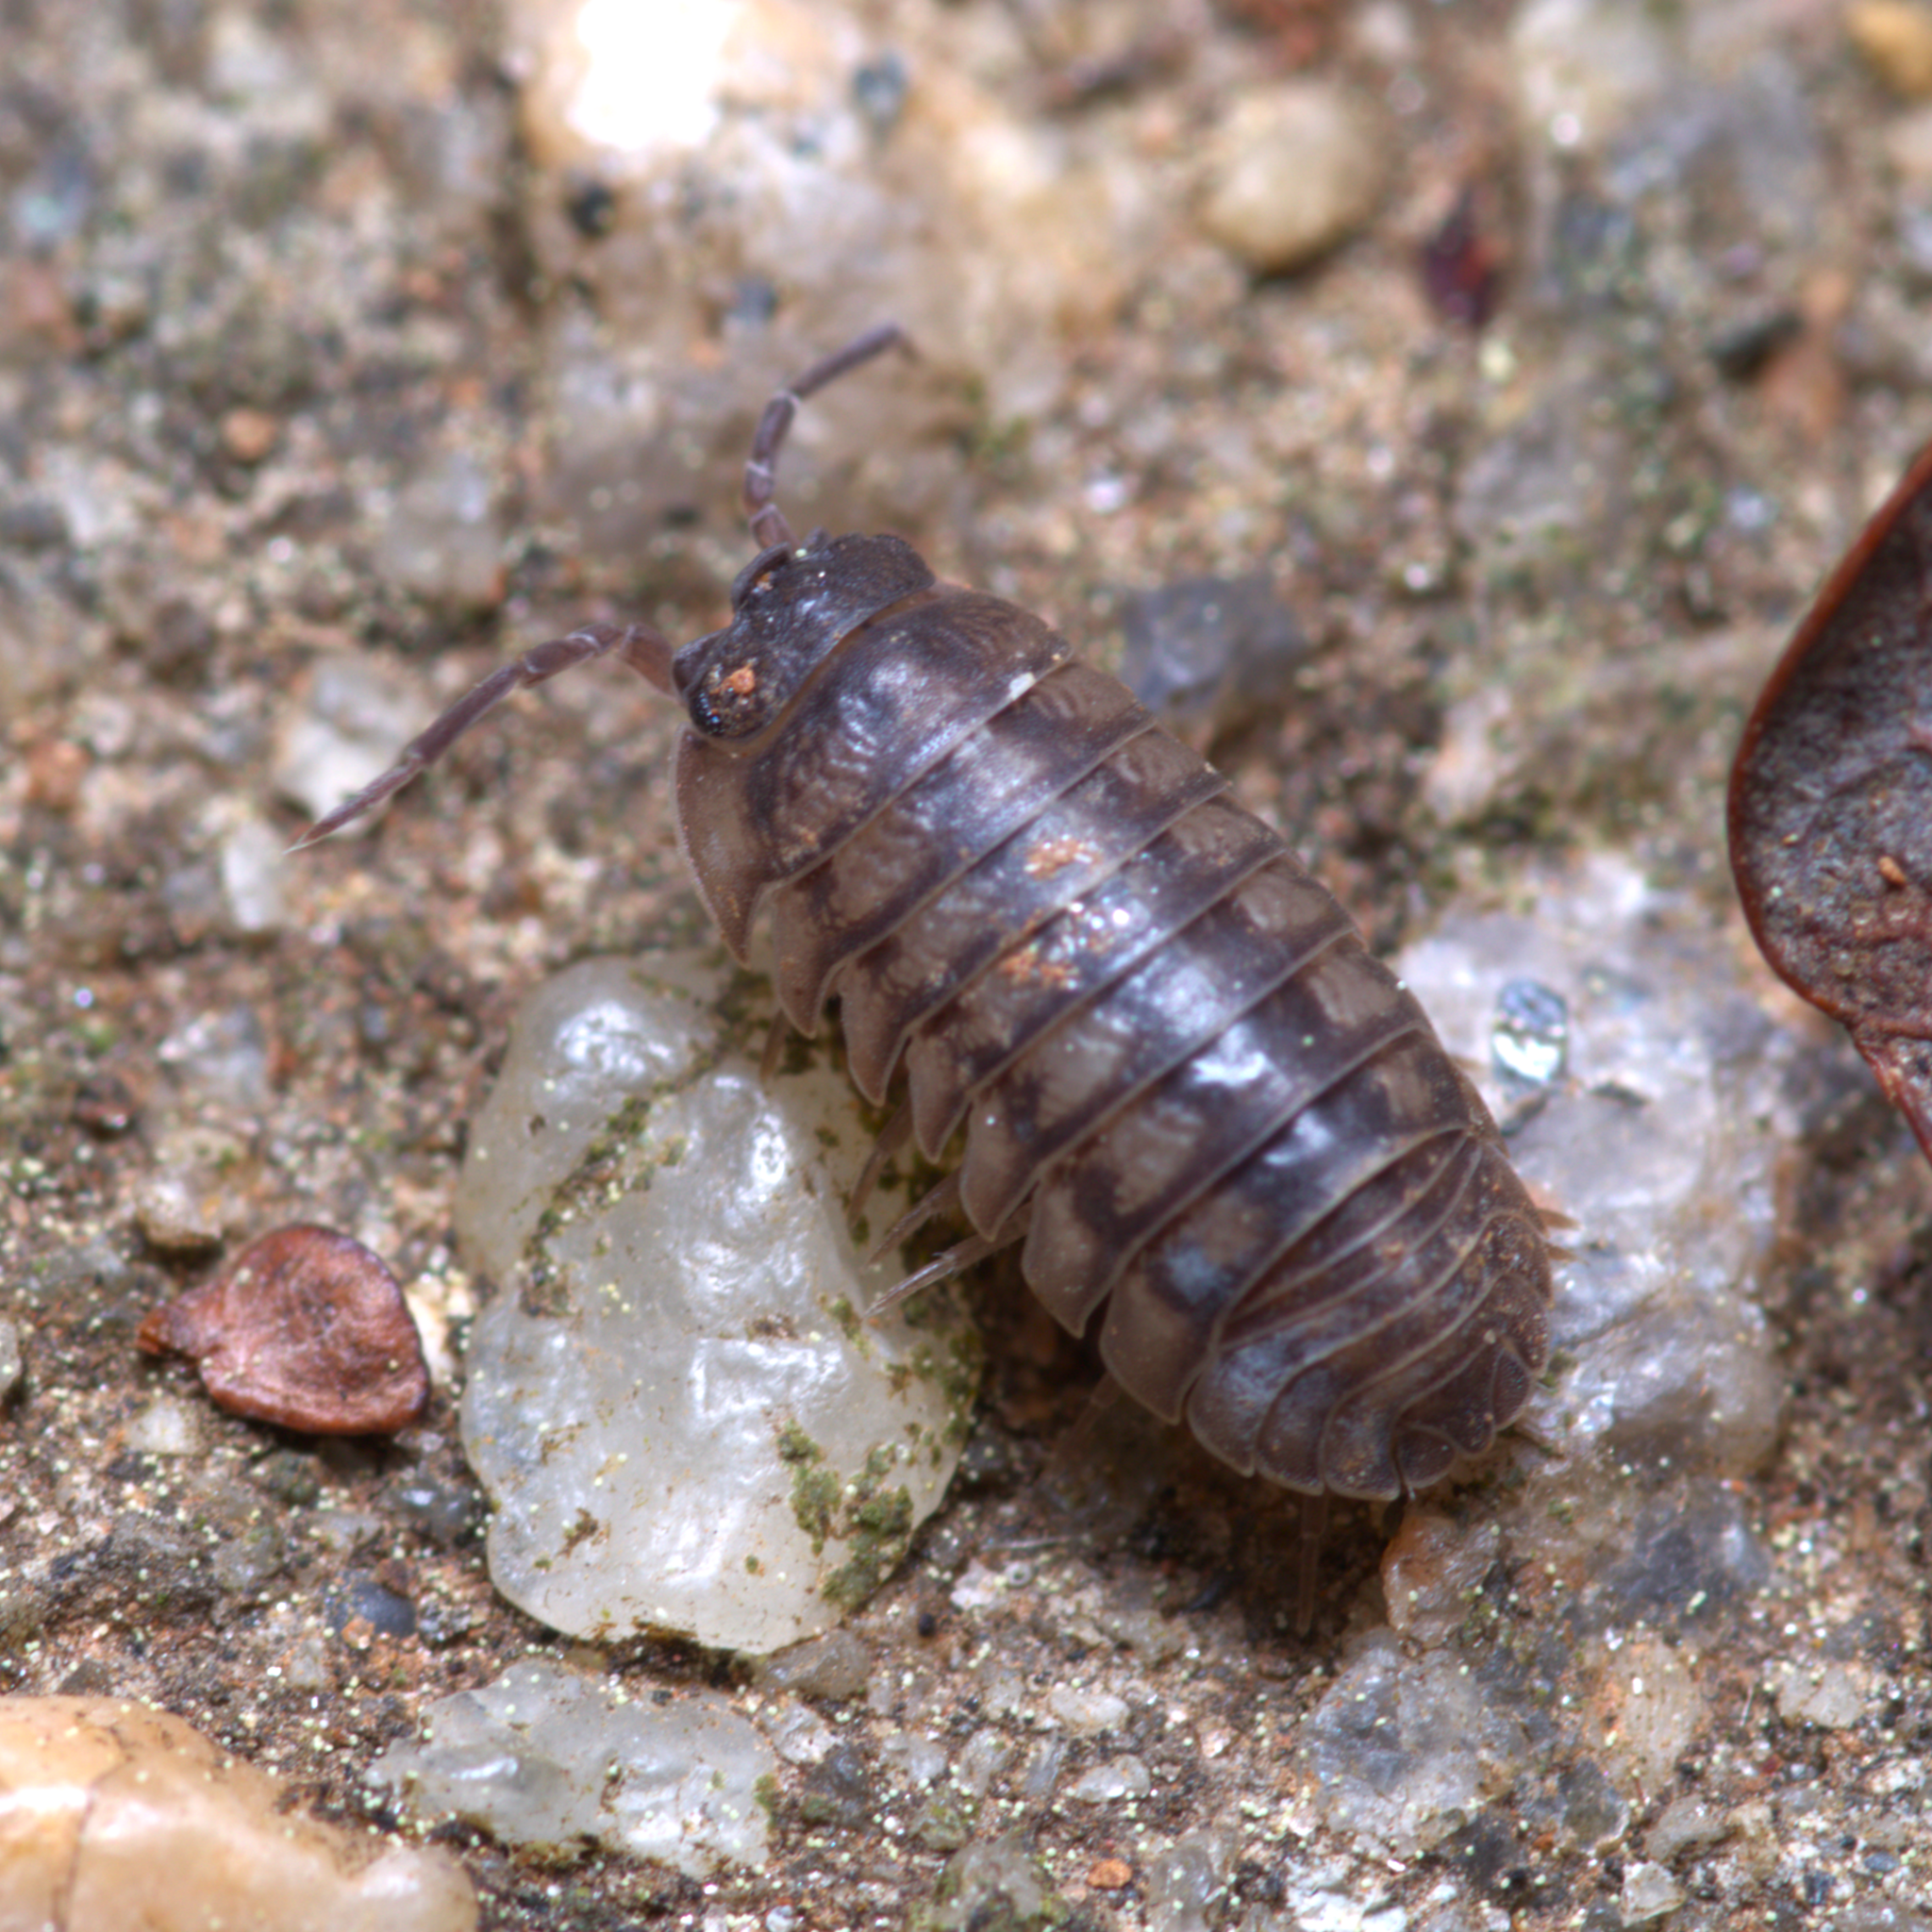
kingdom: Animalia
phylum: Arthropoda
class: Malacostraca
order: Isopoda
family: Armadillidiidae
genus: Armadillidium
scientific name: Armadillidium nasatum
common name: Isopod
